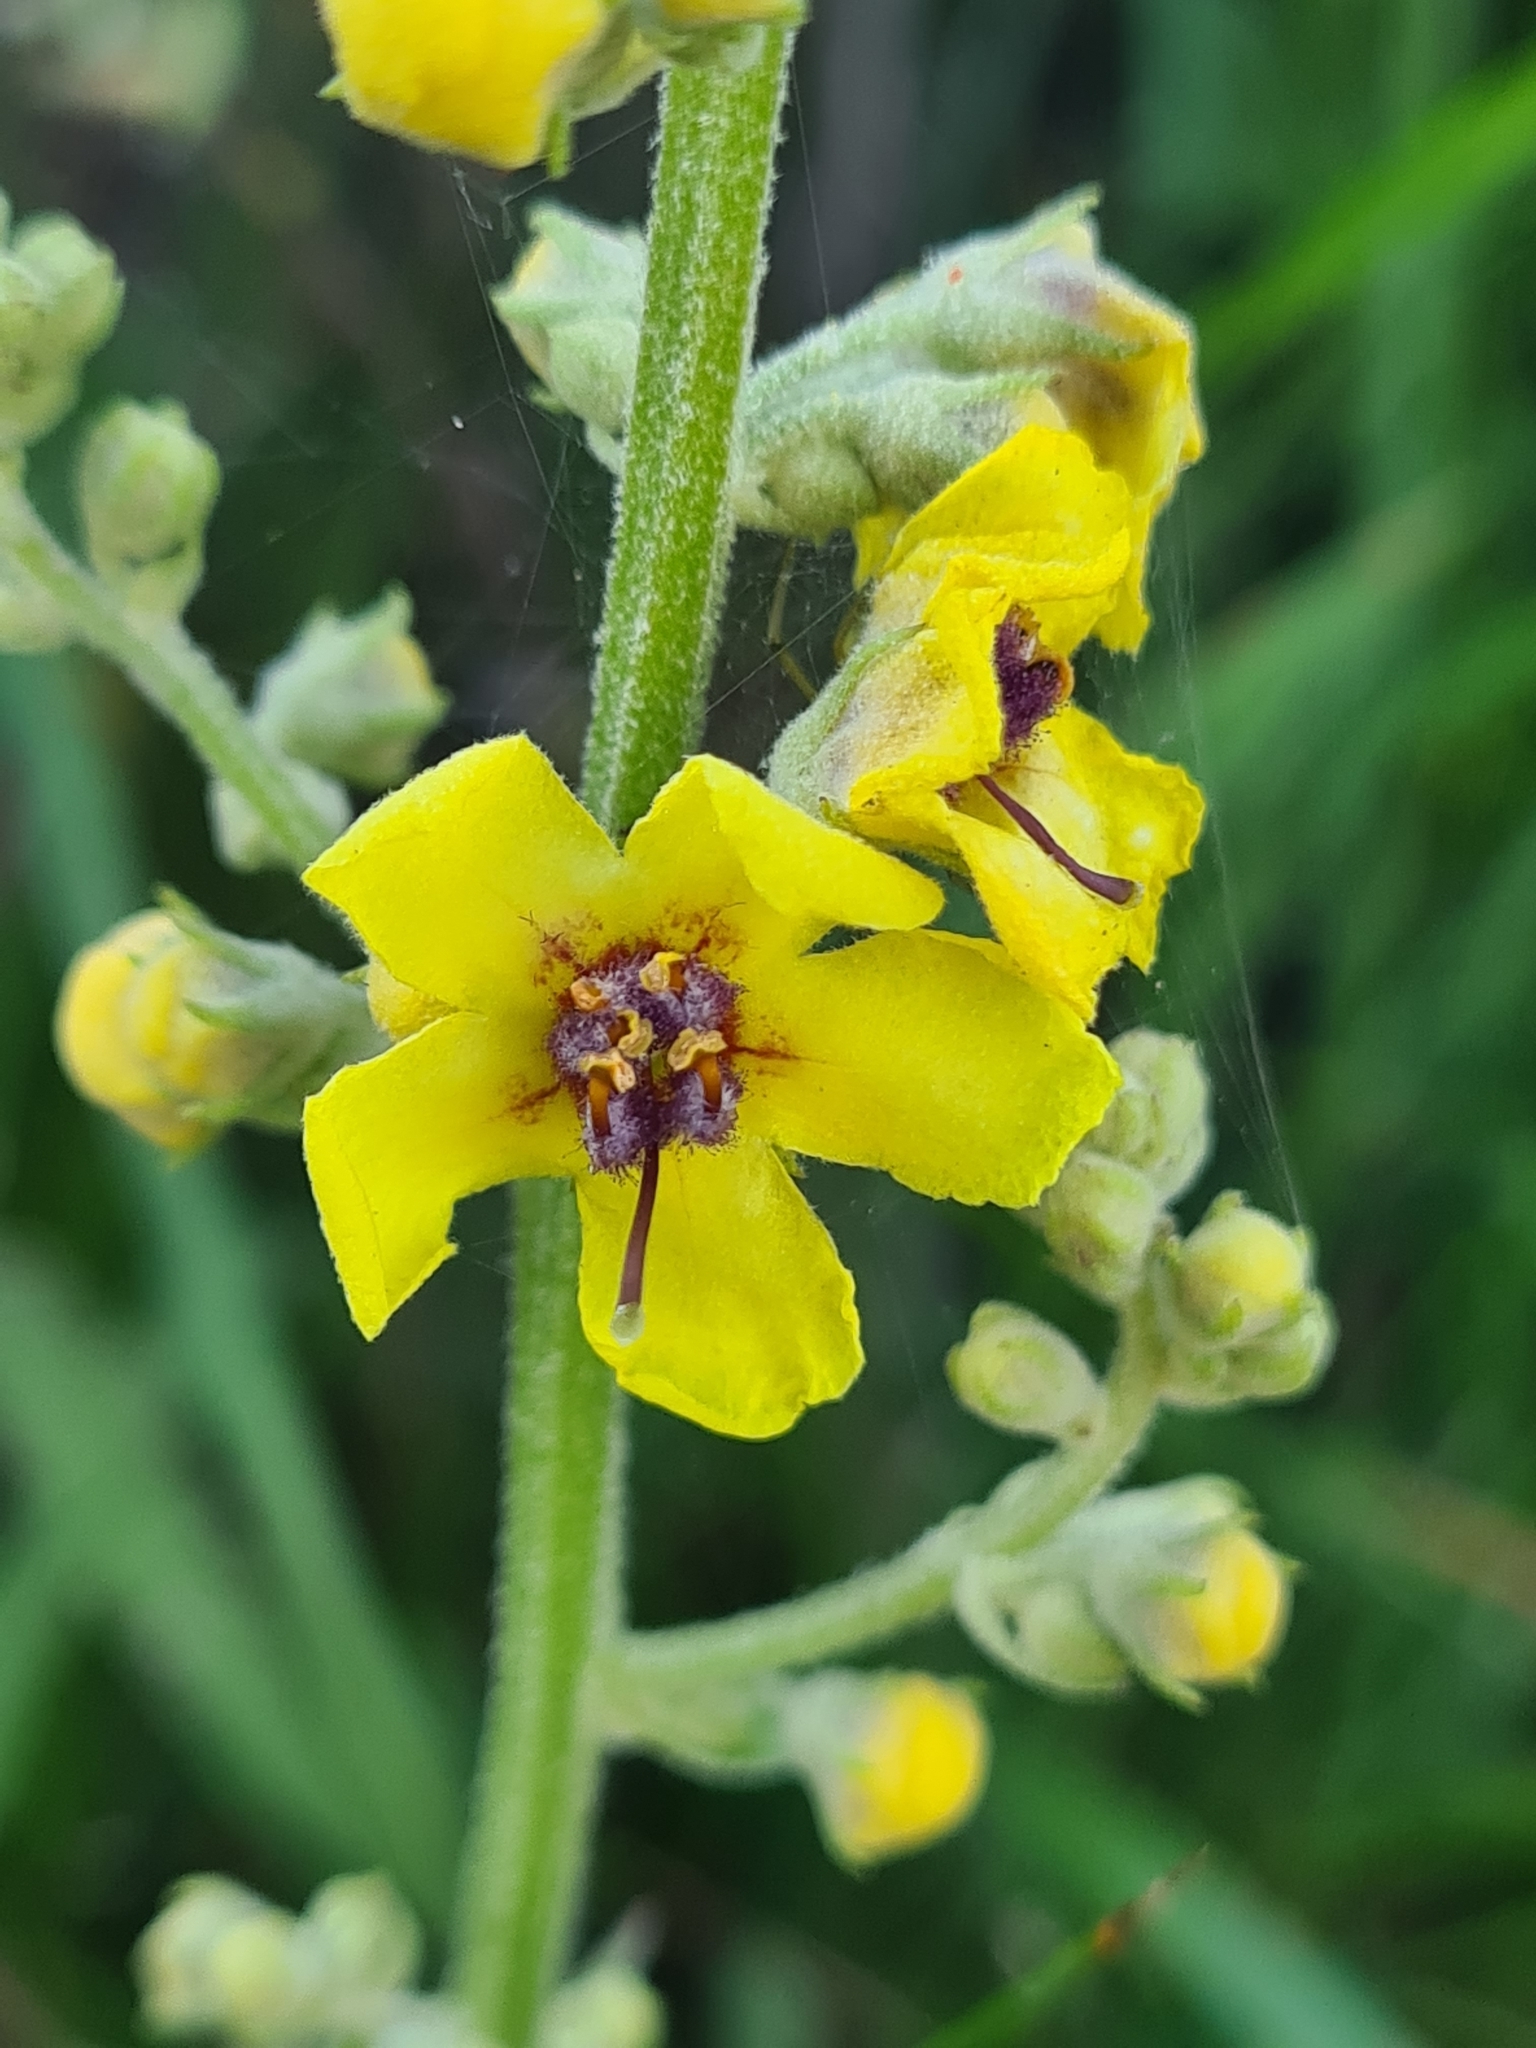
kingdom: Plantae
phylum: Tracheophyta
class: Magnoliopsida
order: Lamiales
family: Scrophulariaceae
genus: Verbascum
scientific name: Verbascum chaixii
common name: Nettle-leaved mullein
